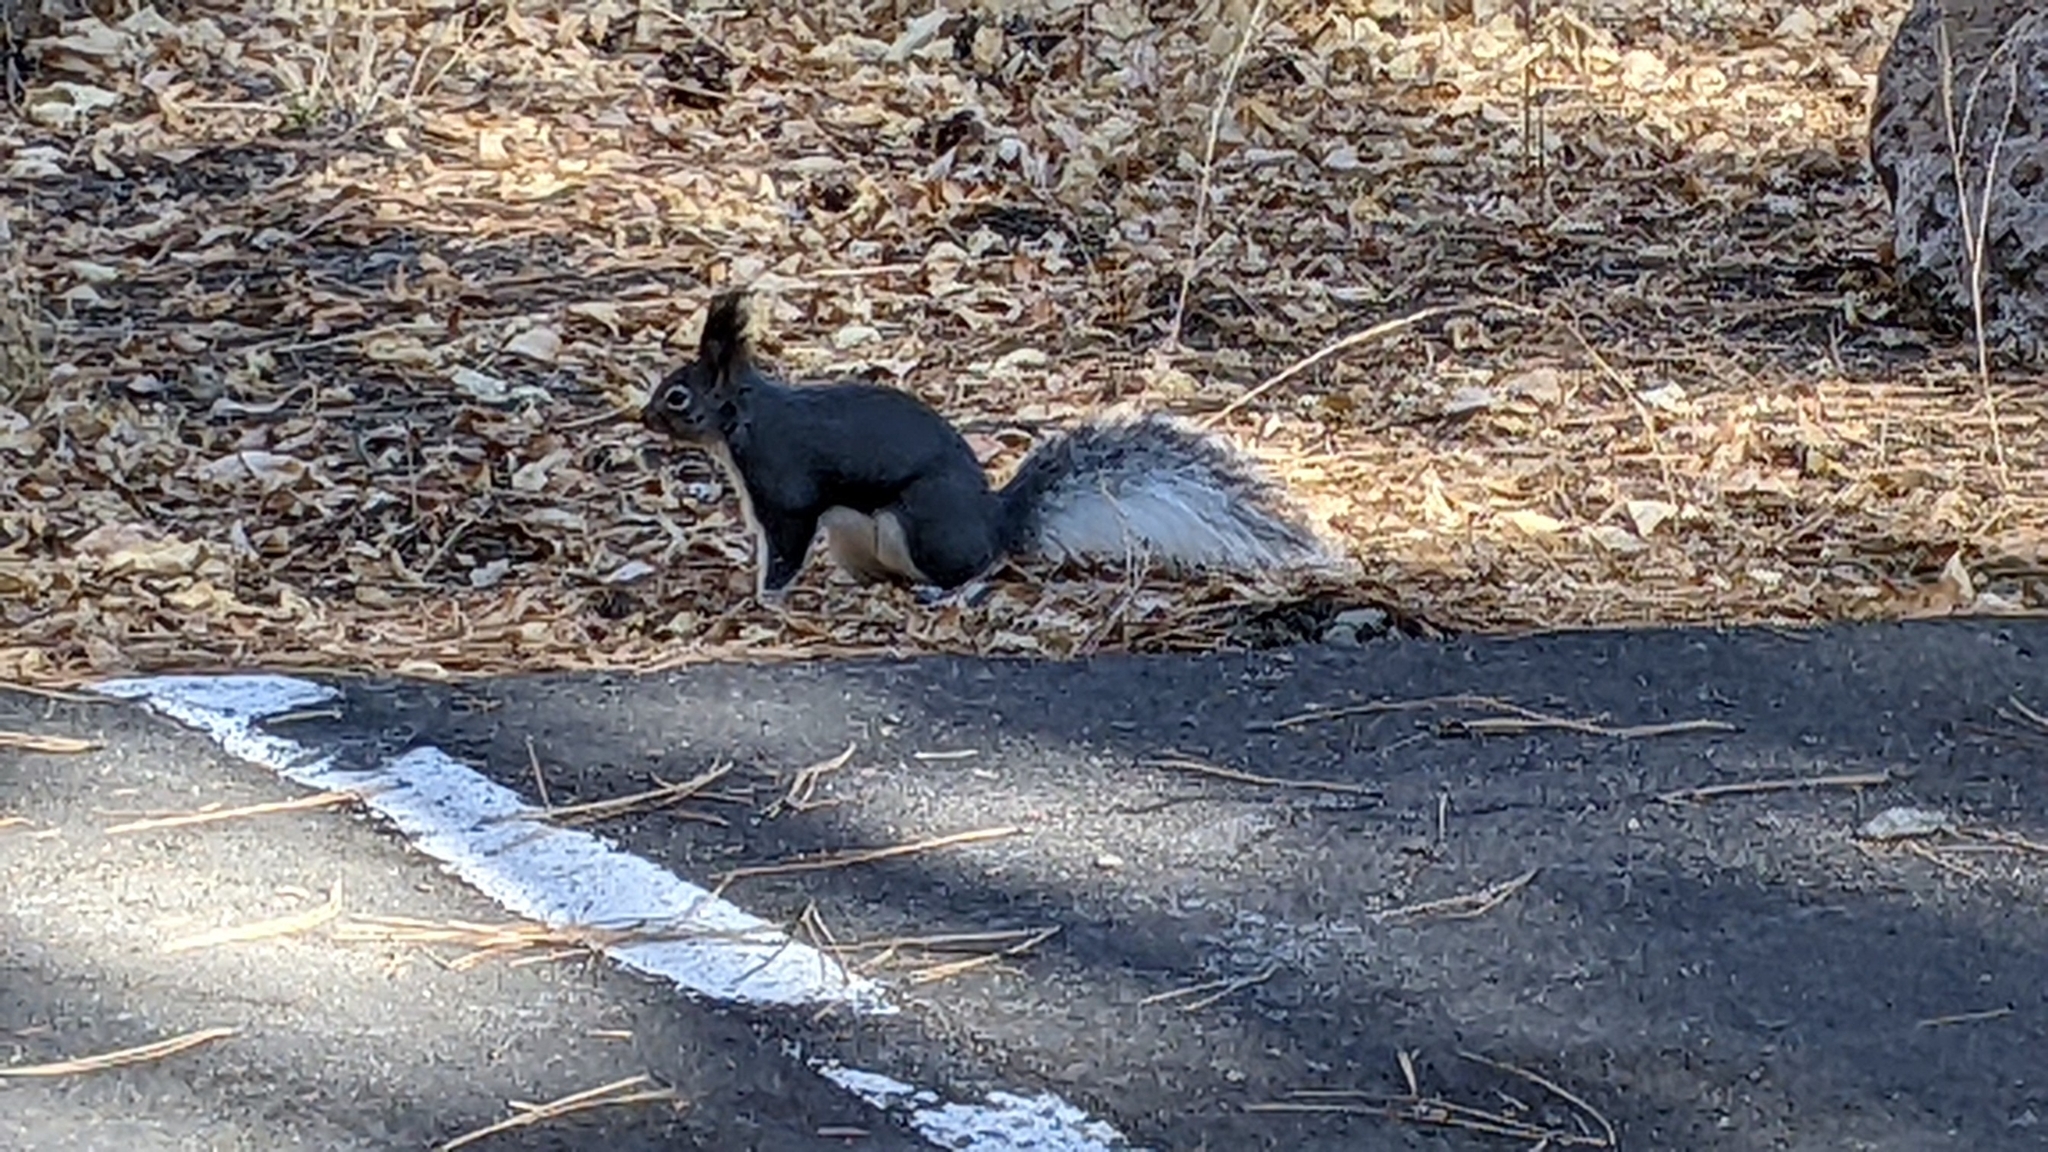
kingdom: Animalia
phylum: Chordata
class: Mammalia
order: Rodentia
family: Sciuridae
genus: Sciurus
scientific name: Sciurus aberti
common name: Abert's squirrel
